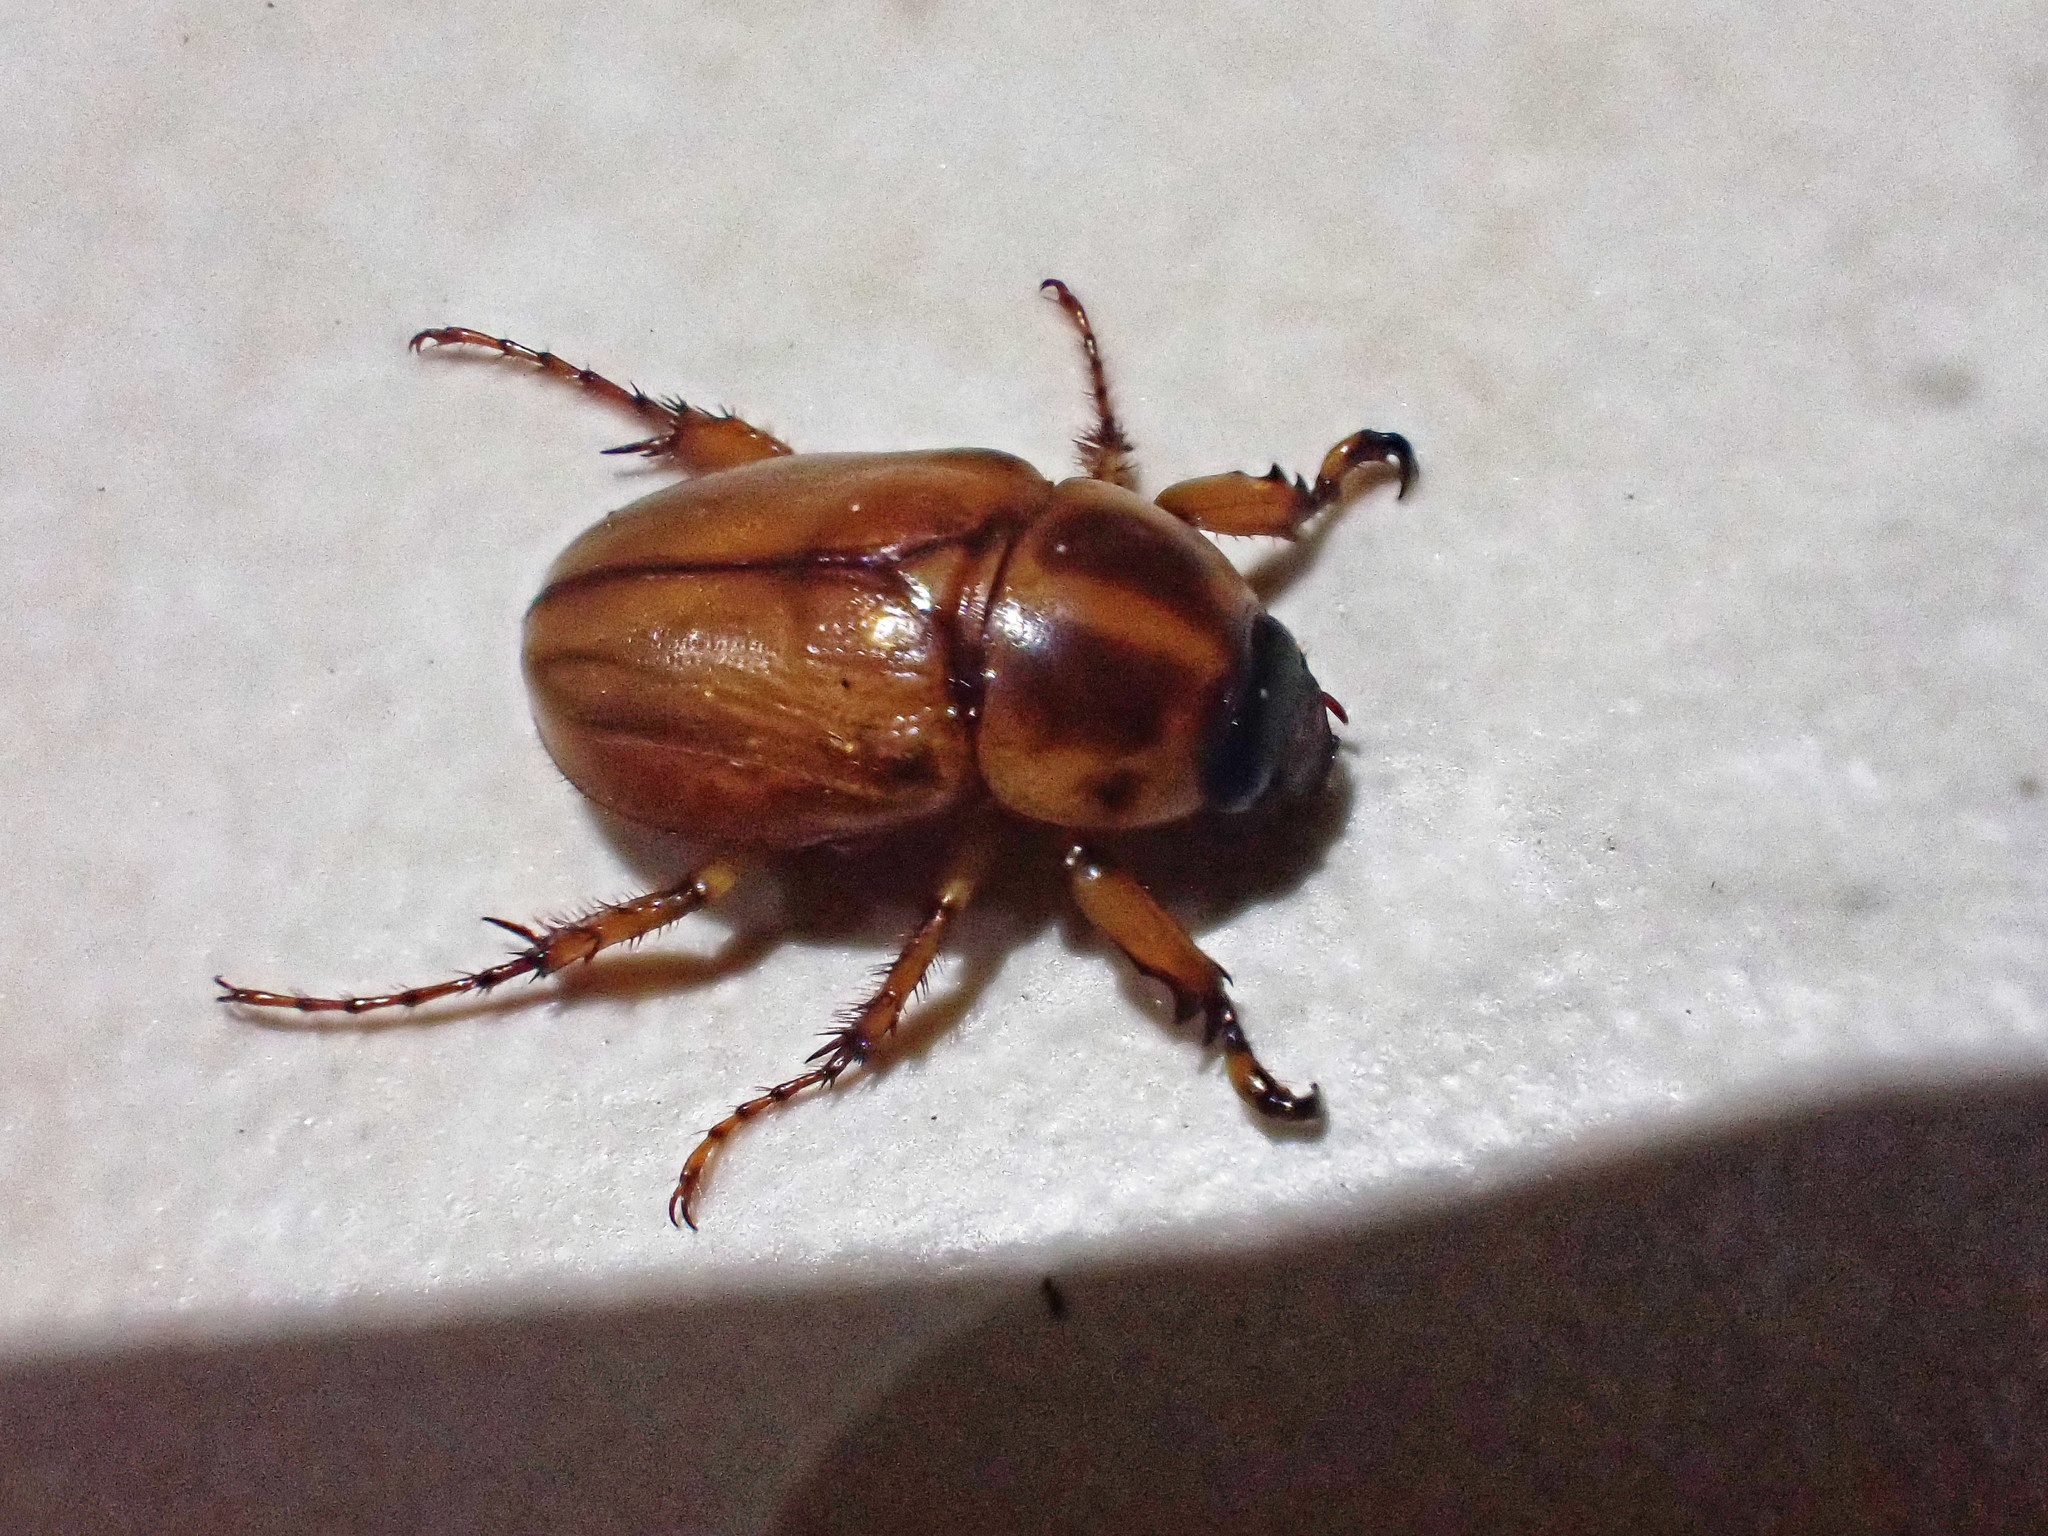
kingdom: Animalia
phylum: Arthropoda
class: Insecta
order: Coleoptera
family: Scarabaeidae
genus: Cyclocephala
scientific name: Cyclocephala tridentata
